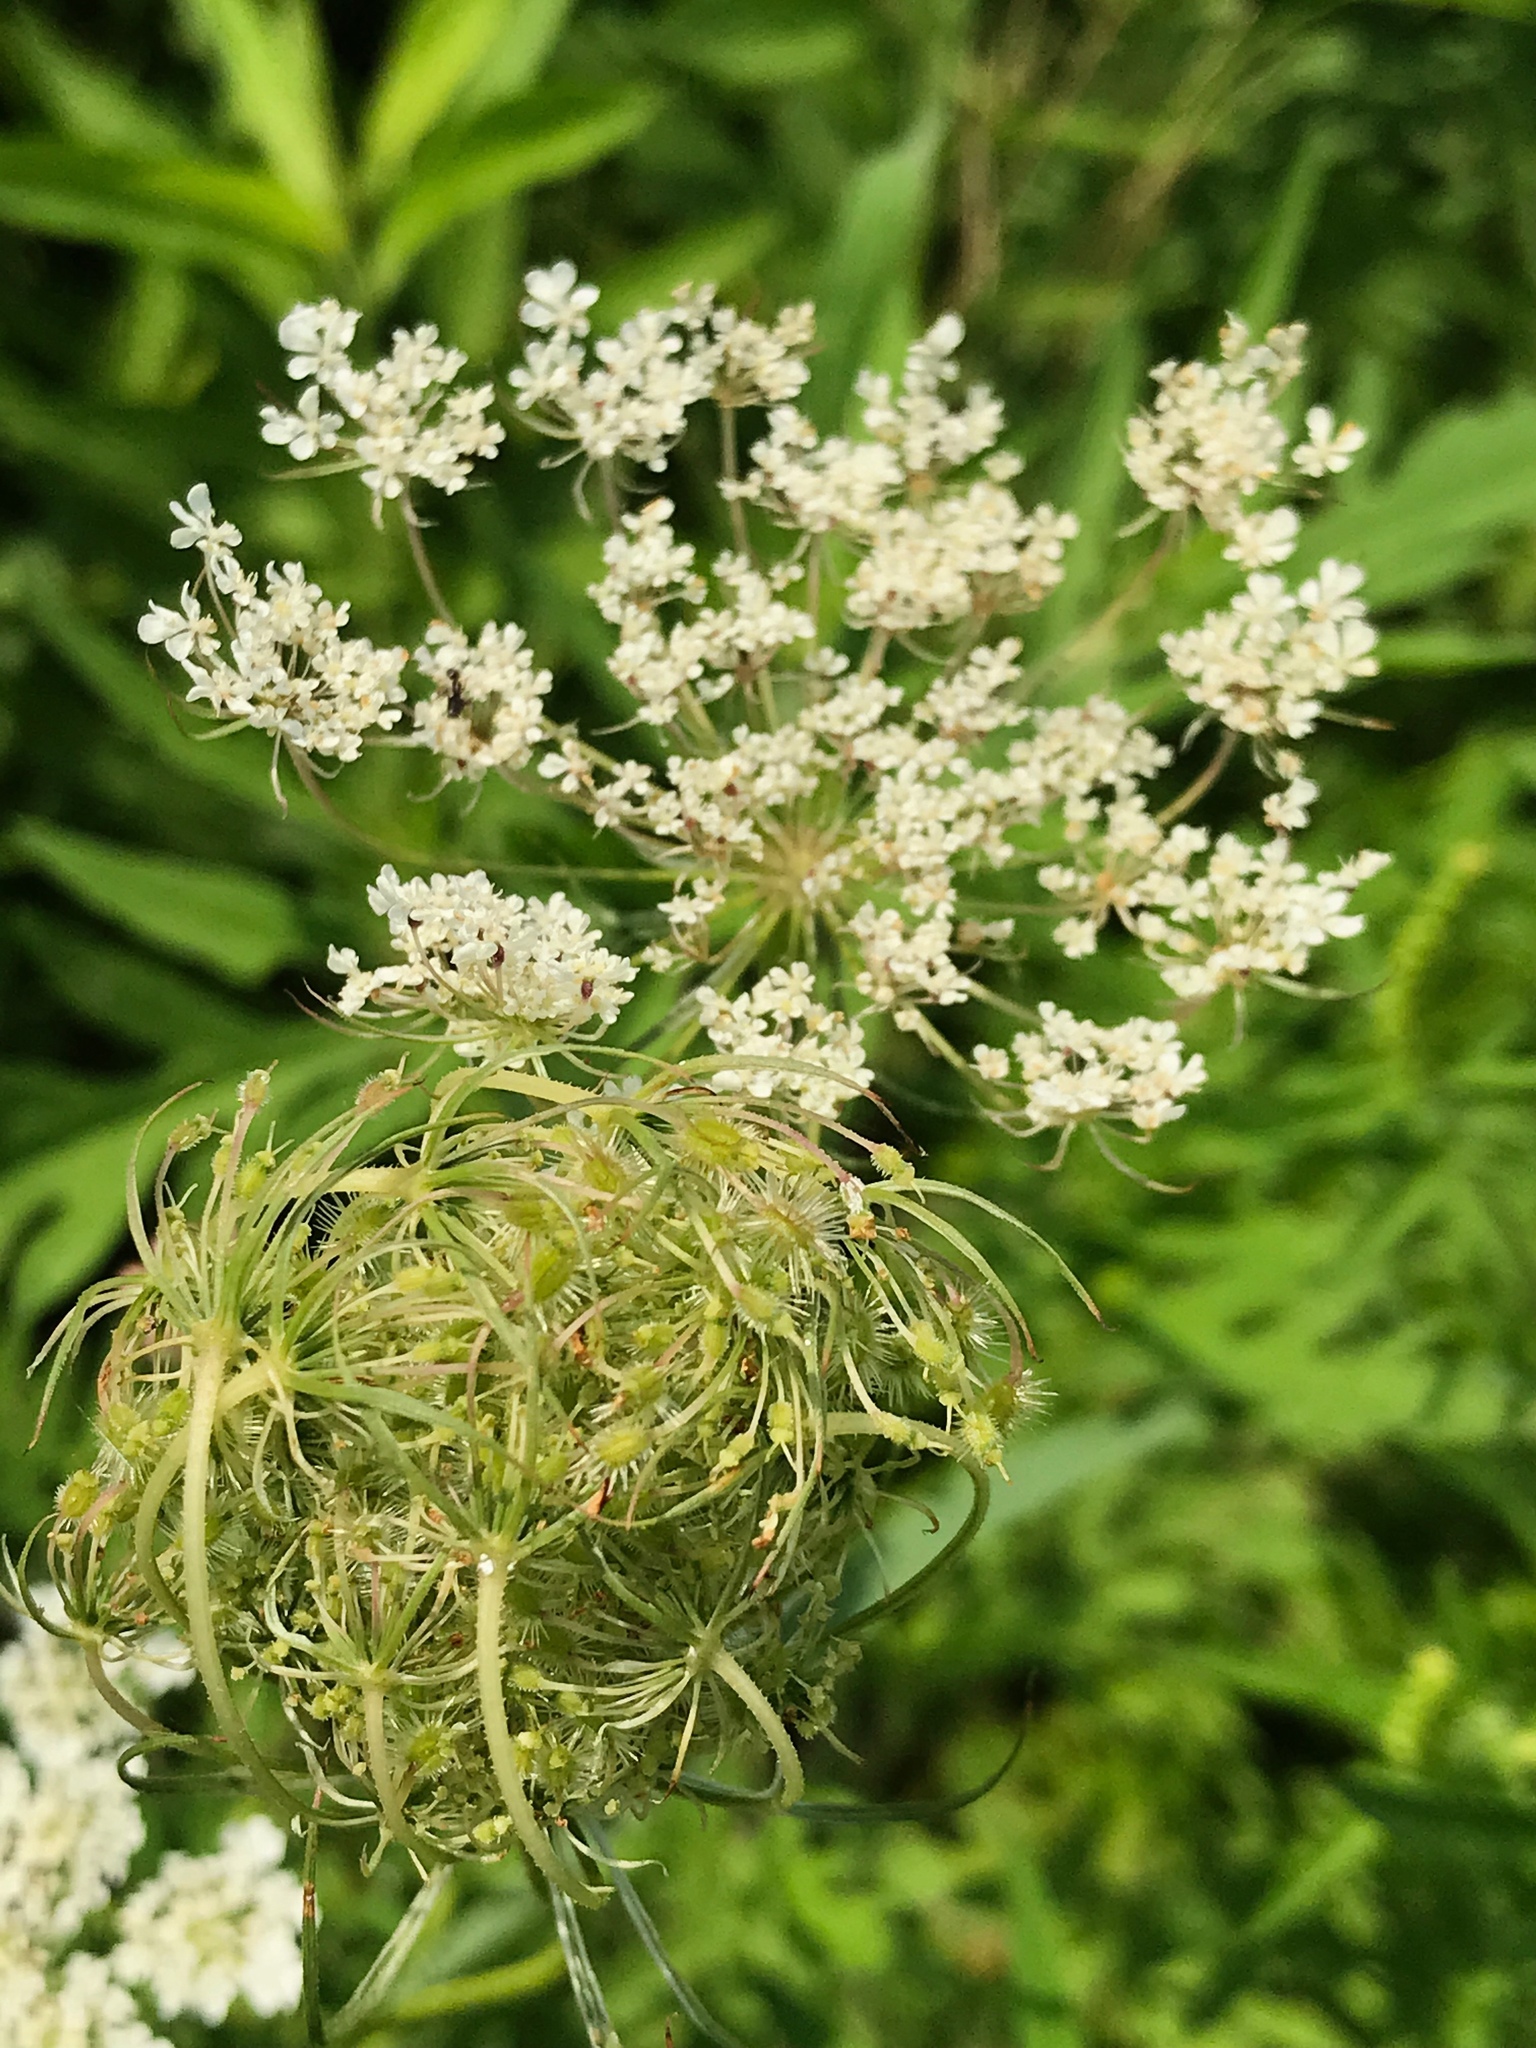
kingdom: Plantae
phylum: Tracheophyta
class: Magnoliopsida
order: Apiales
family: Apiaceae
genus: Daucus
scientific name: Daucus carota
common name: Wild carrot
